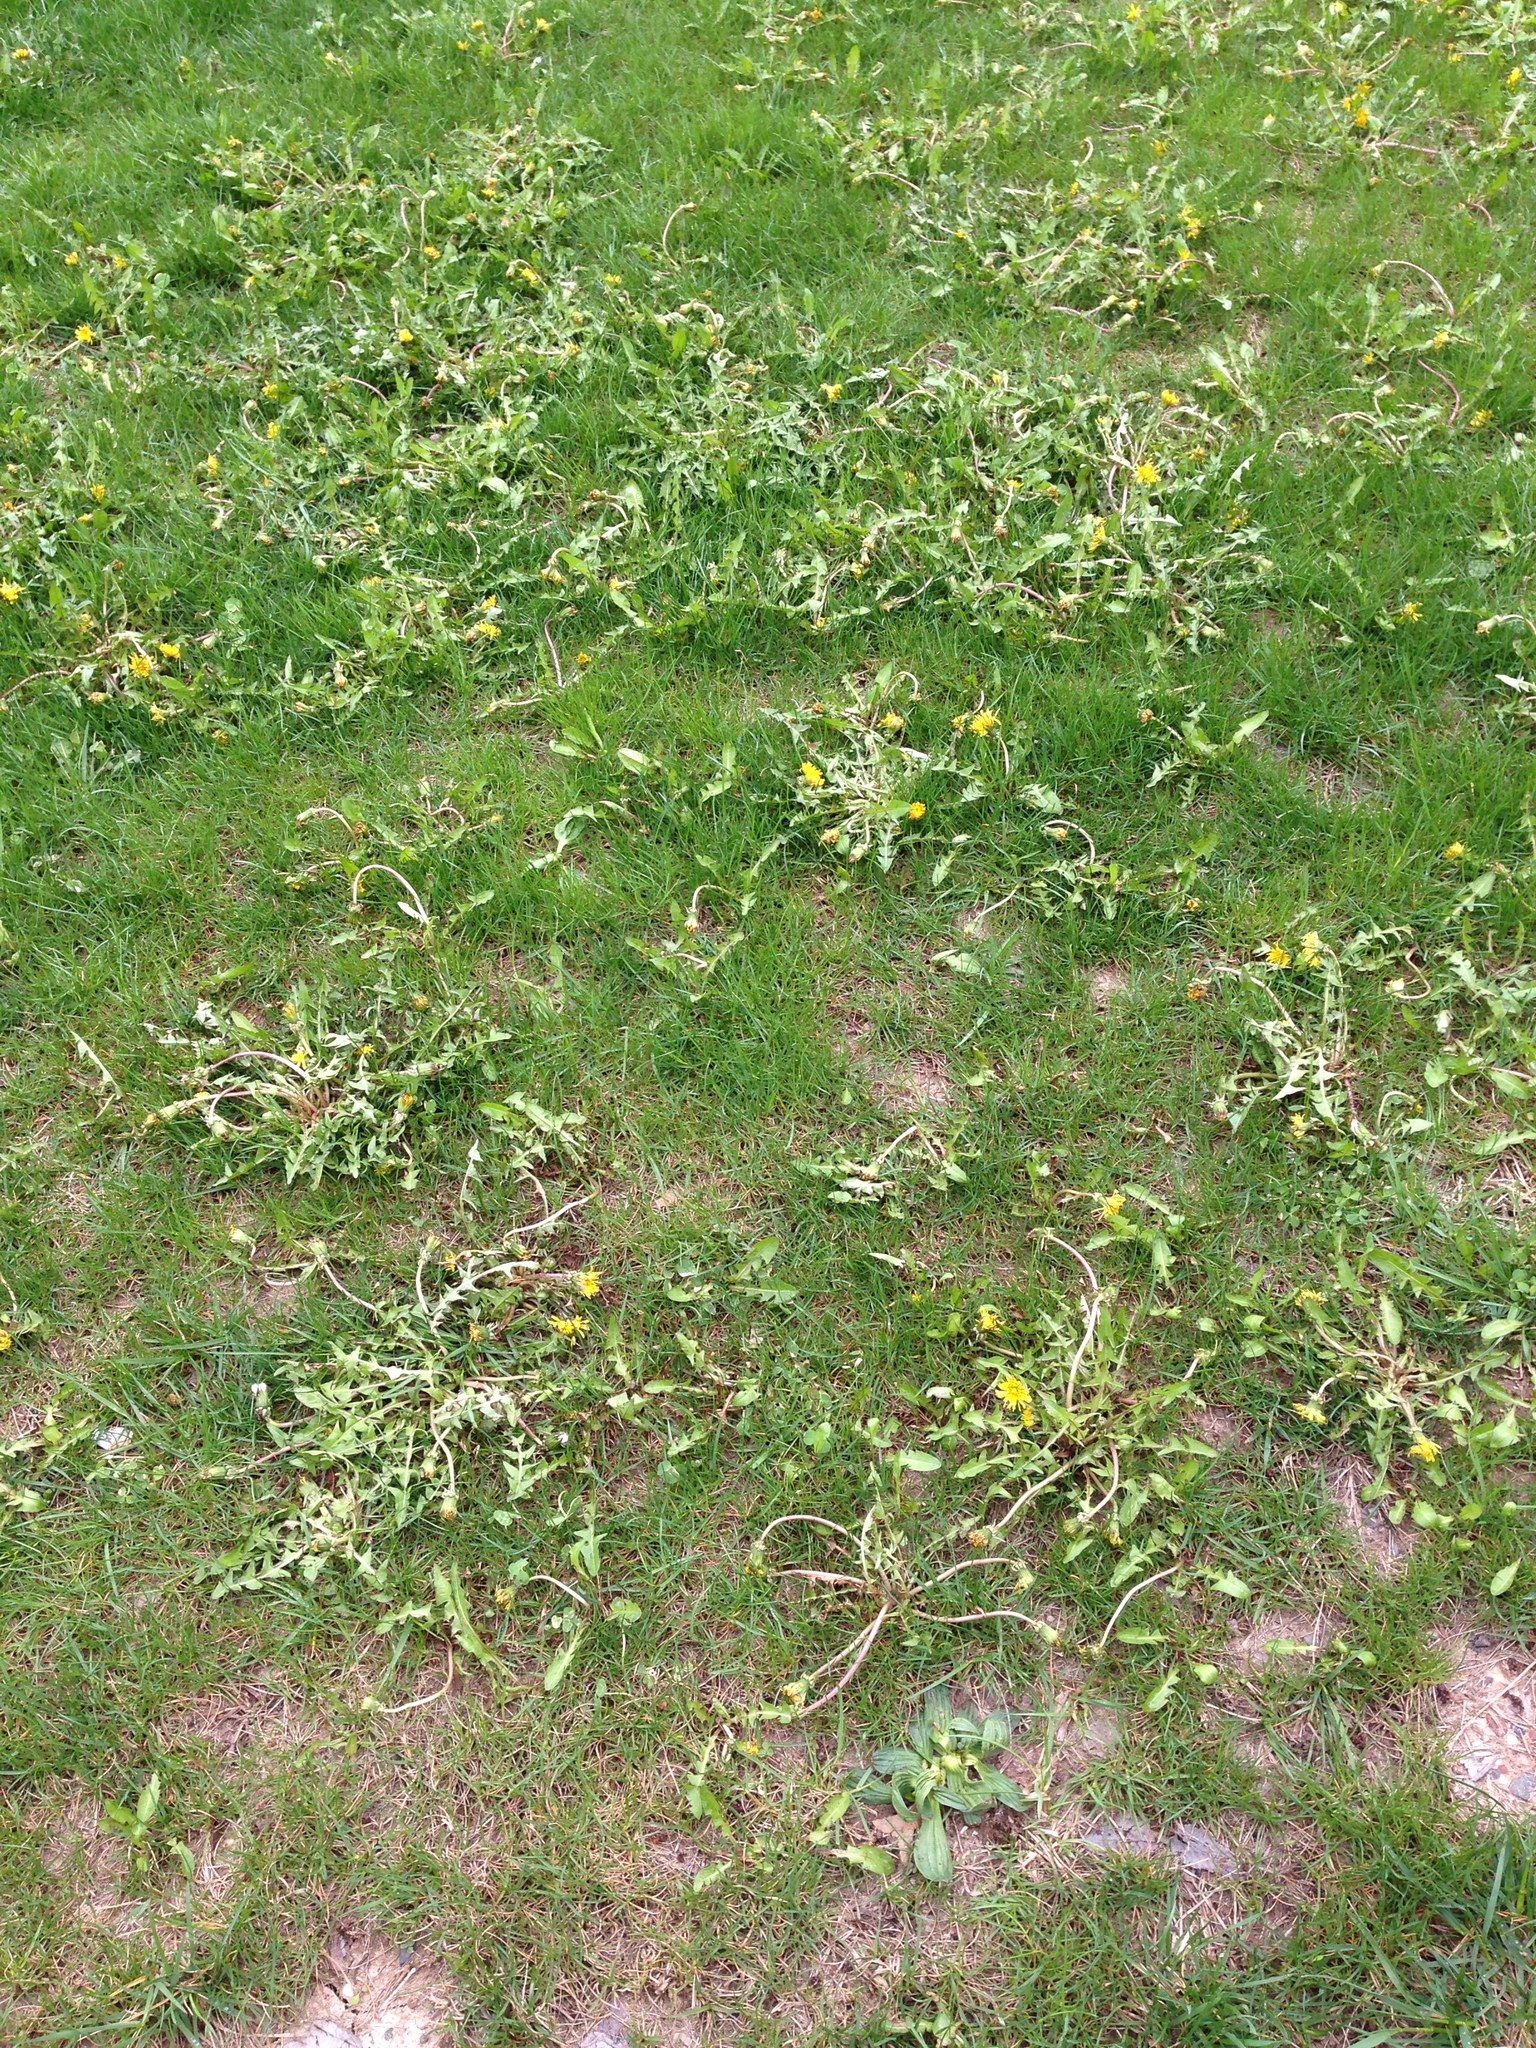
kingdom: Plantae
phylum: Tracheophyta
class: Magnoliopsida
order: Asterales
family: Asteraceae
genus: Taraxacum
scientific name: Taraxacum officinale
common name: Common dandelion
